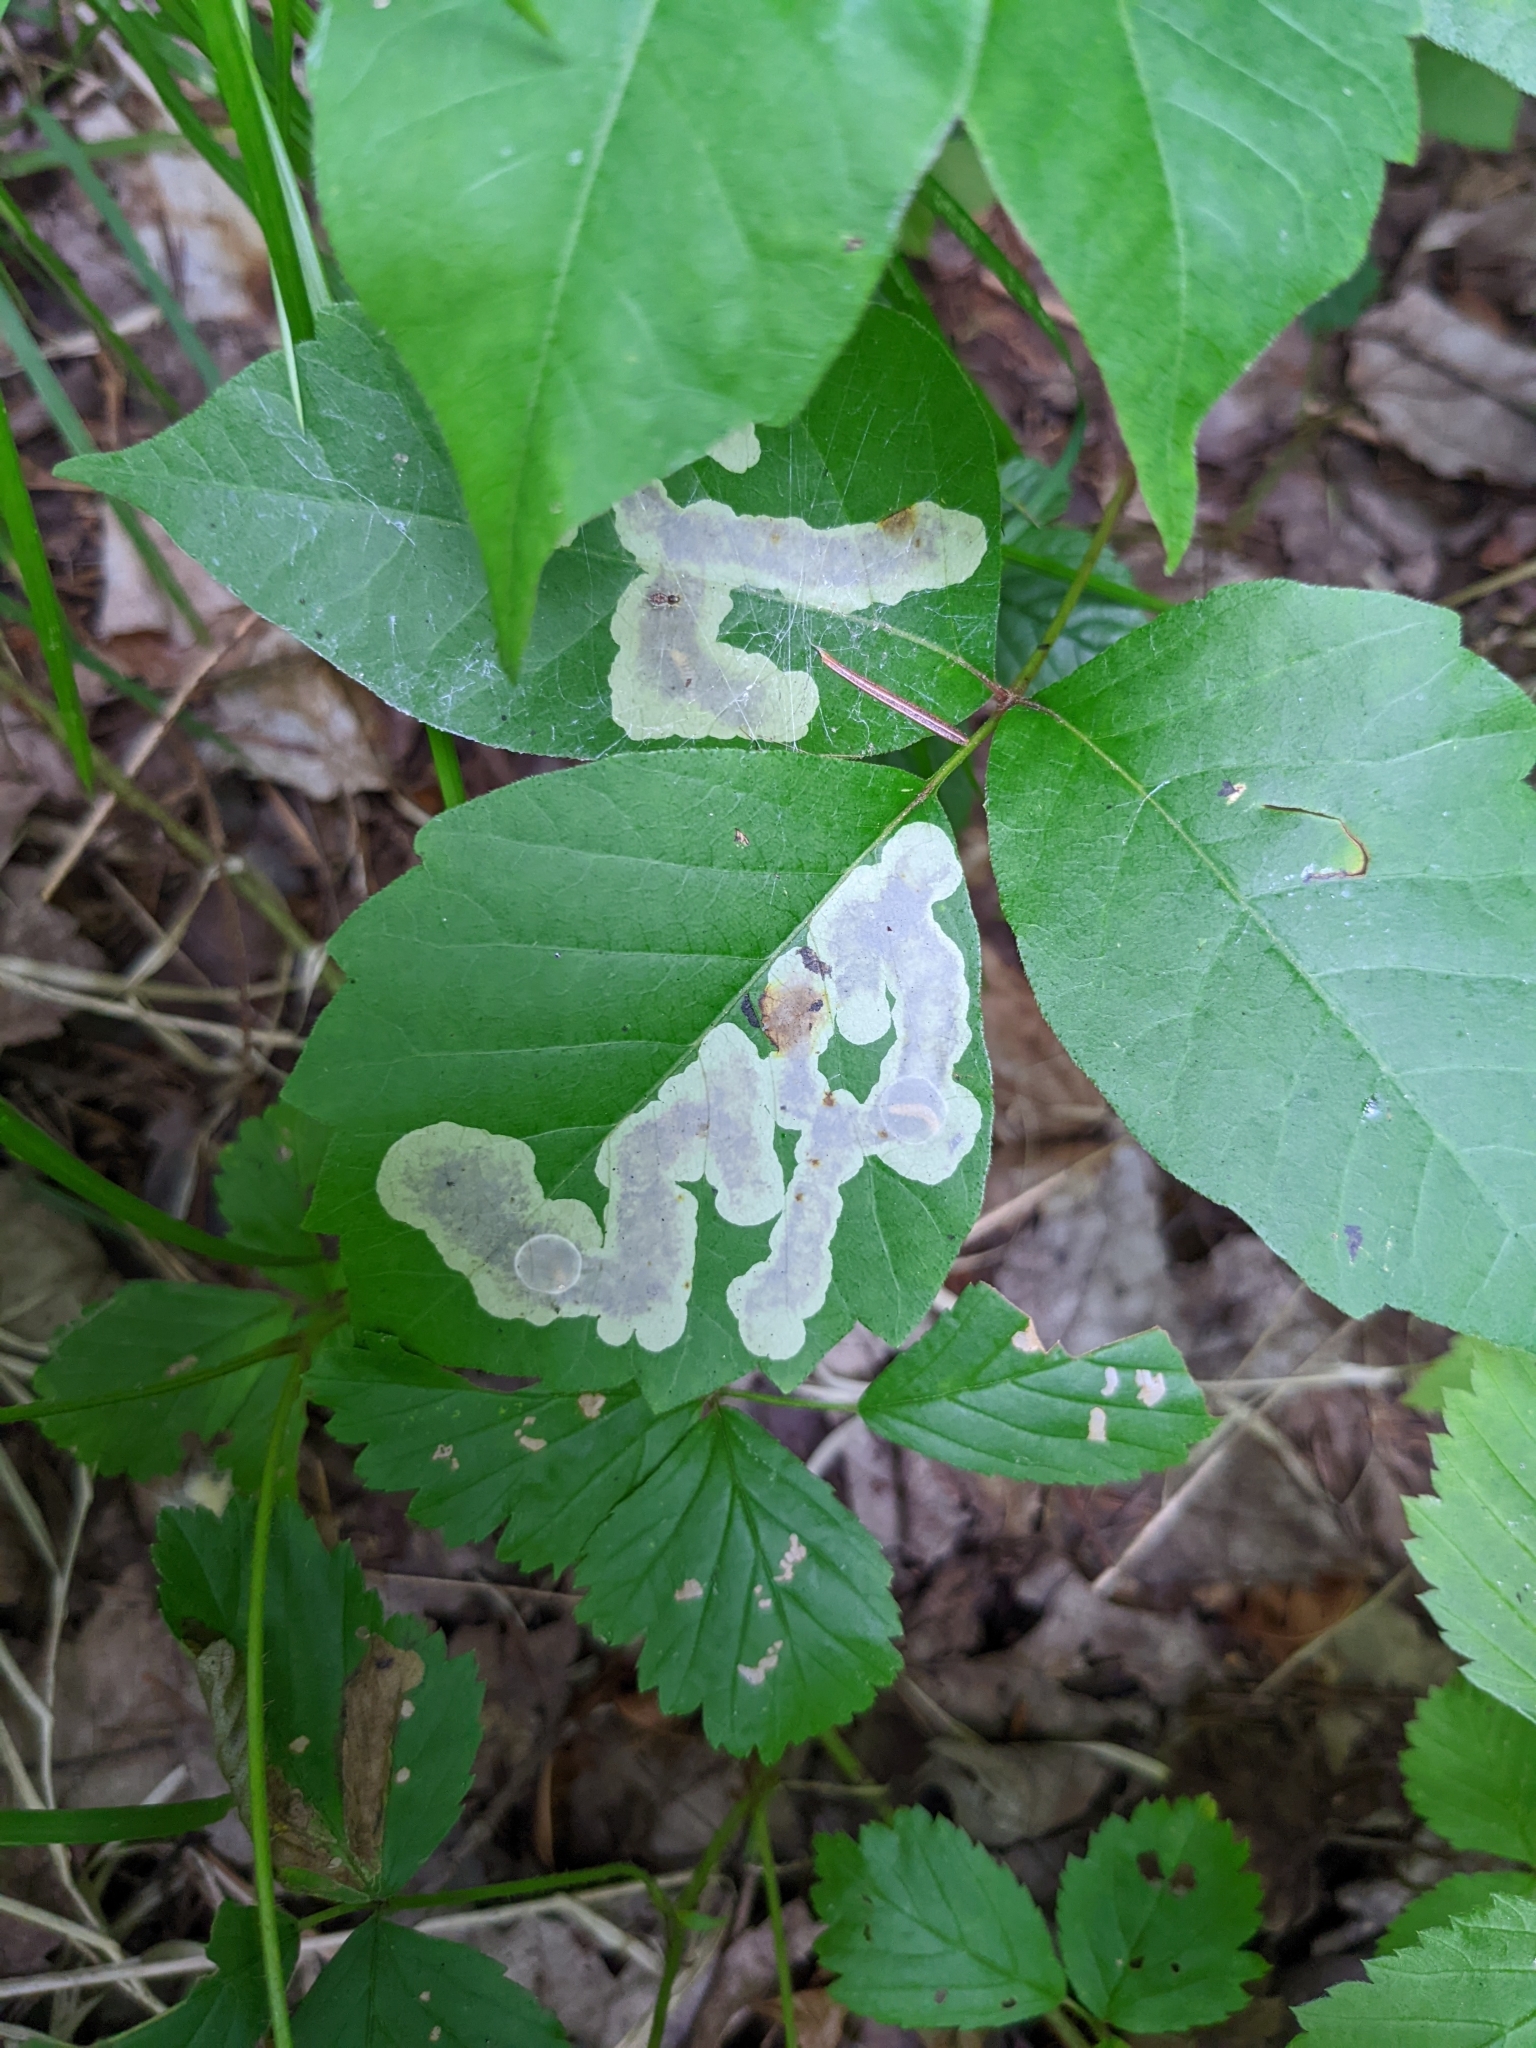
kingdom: Animalia
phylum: Arthropoda
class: Insecta
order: Lepidoptera
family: Gracillariidae
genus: Cameraria
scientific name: Cameraria guttifinitella
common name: Poison ivy leaf-miner moth
